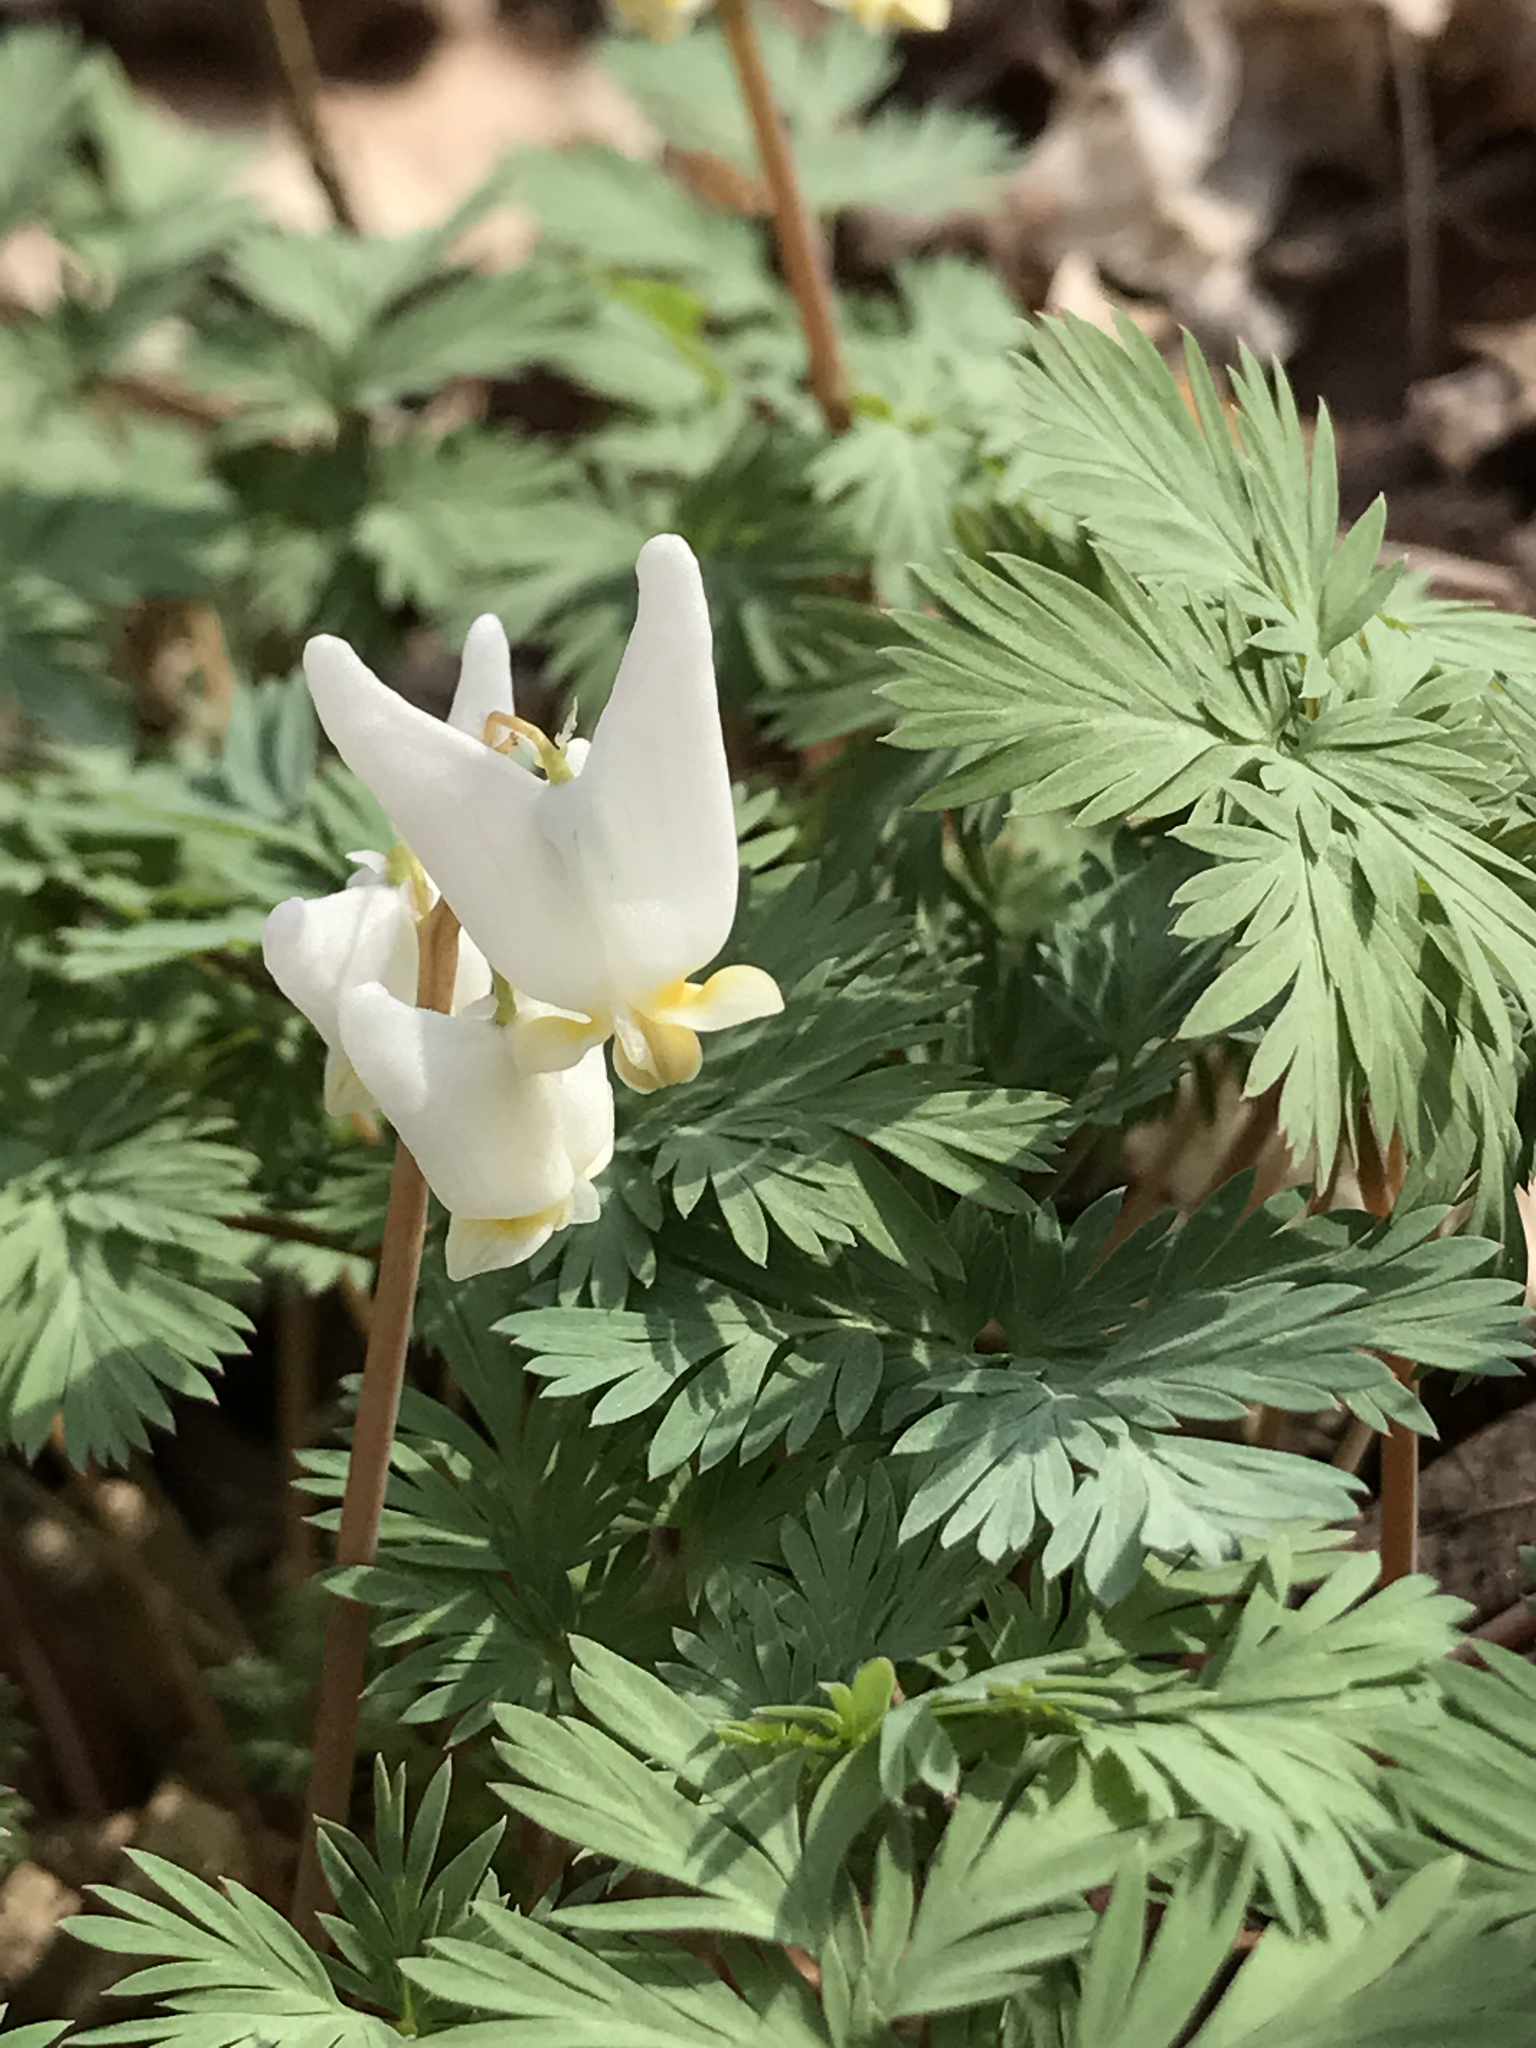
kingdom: Plantae
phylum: Tracheophyta
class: Magnoliopsida
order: Ranunculales
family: Papaveraceae
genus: Dicentra
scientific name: Dicentra cucullaria
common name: Dutchman's breeches
